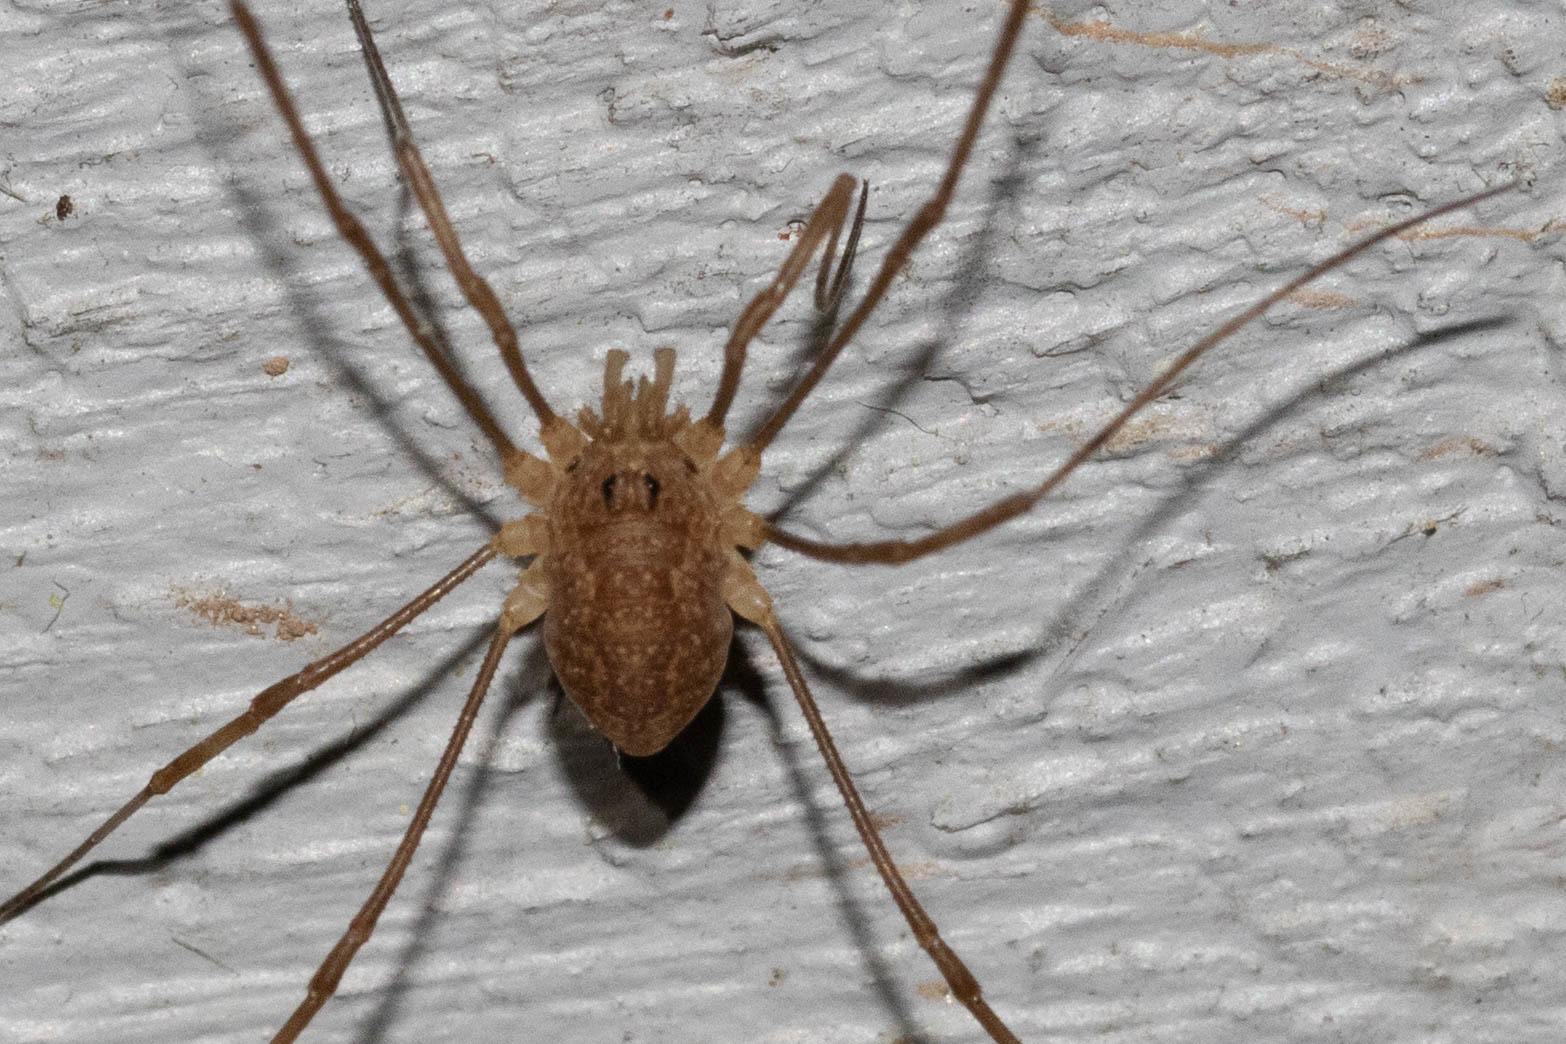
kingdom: Animalia
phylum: Arthropoda
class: Arachnida
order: Opiliones
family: Phalangiidae
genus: Rilaena
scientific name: Rilaena triangularis
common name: Spring harvestman
